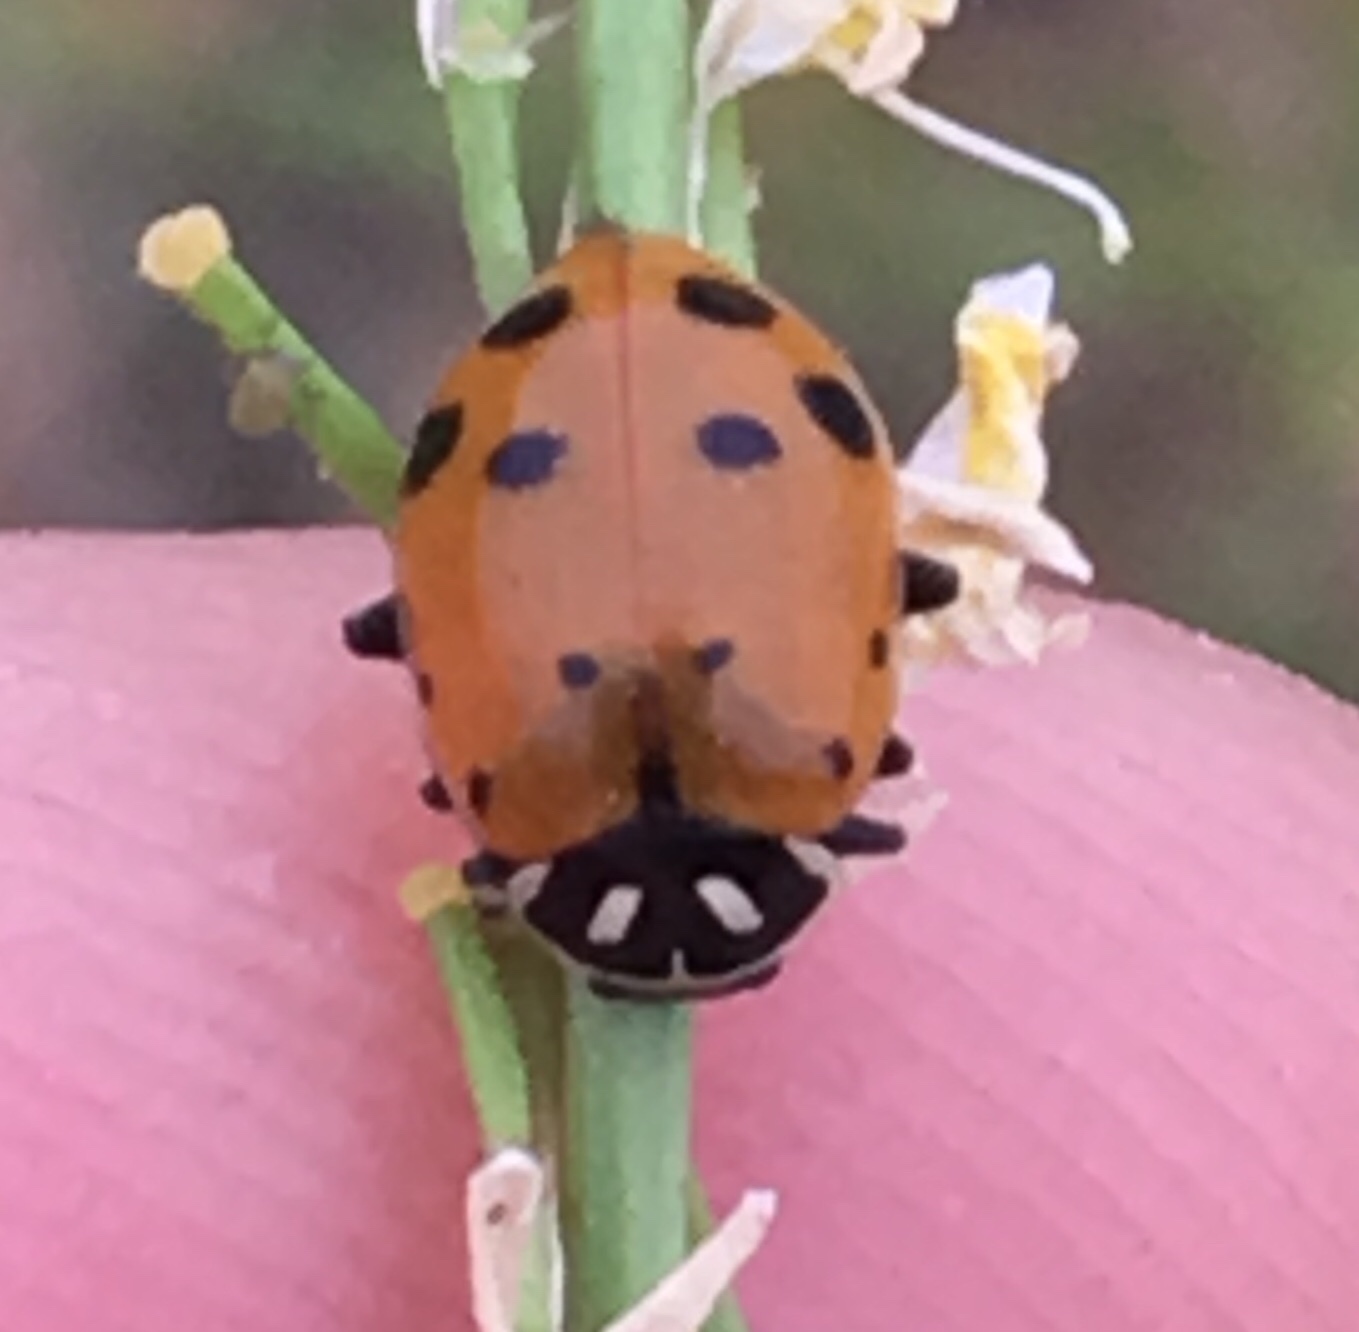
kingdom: Animalia
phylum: Arthropoda
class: Insecta
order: Coleoptera
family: Coccinellidae
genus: Hippodamia
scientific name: Hippodamia convergens
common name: Convergent lady beetle
